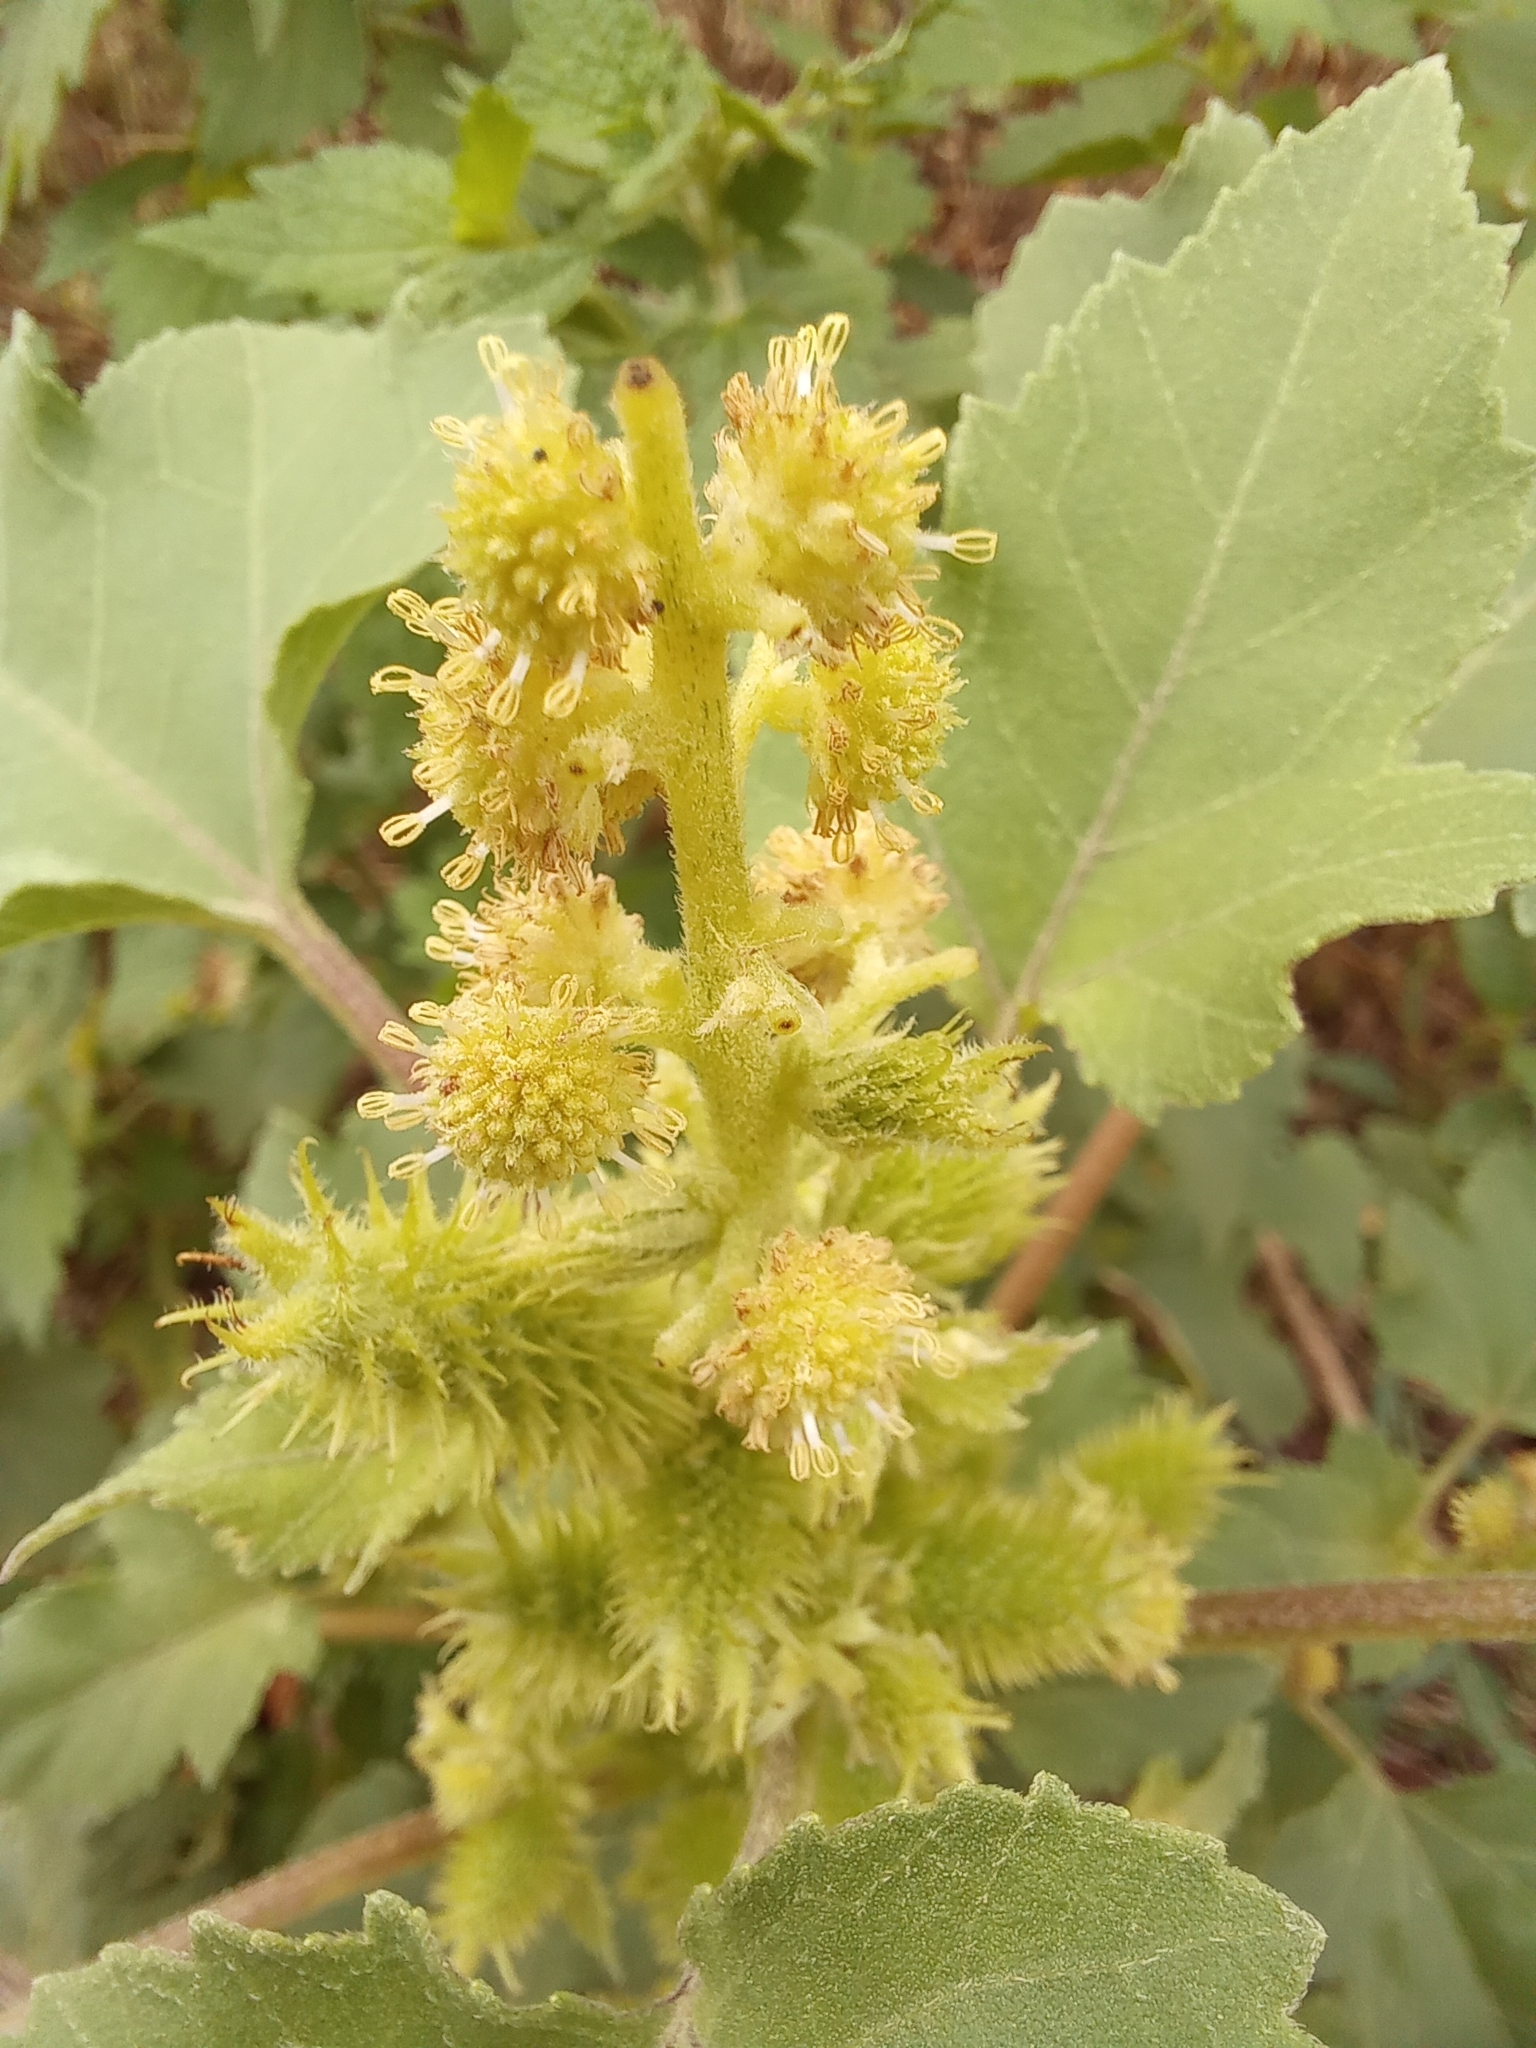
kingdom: Plantae
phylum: Tracheophyta
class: Magnoliopsida
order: Asterales
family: Asteraceae
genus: Xanthium
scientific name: Xanthium orientale
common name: Californian burr
